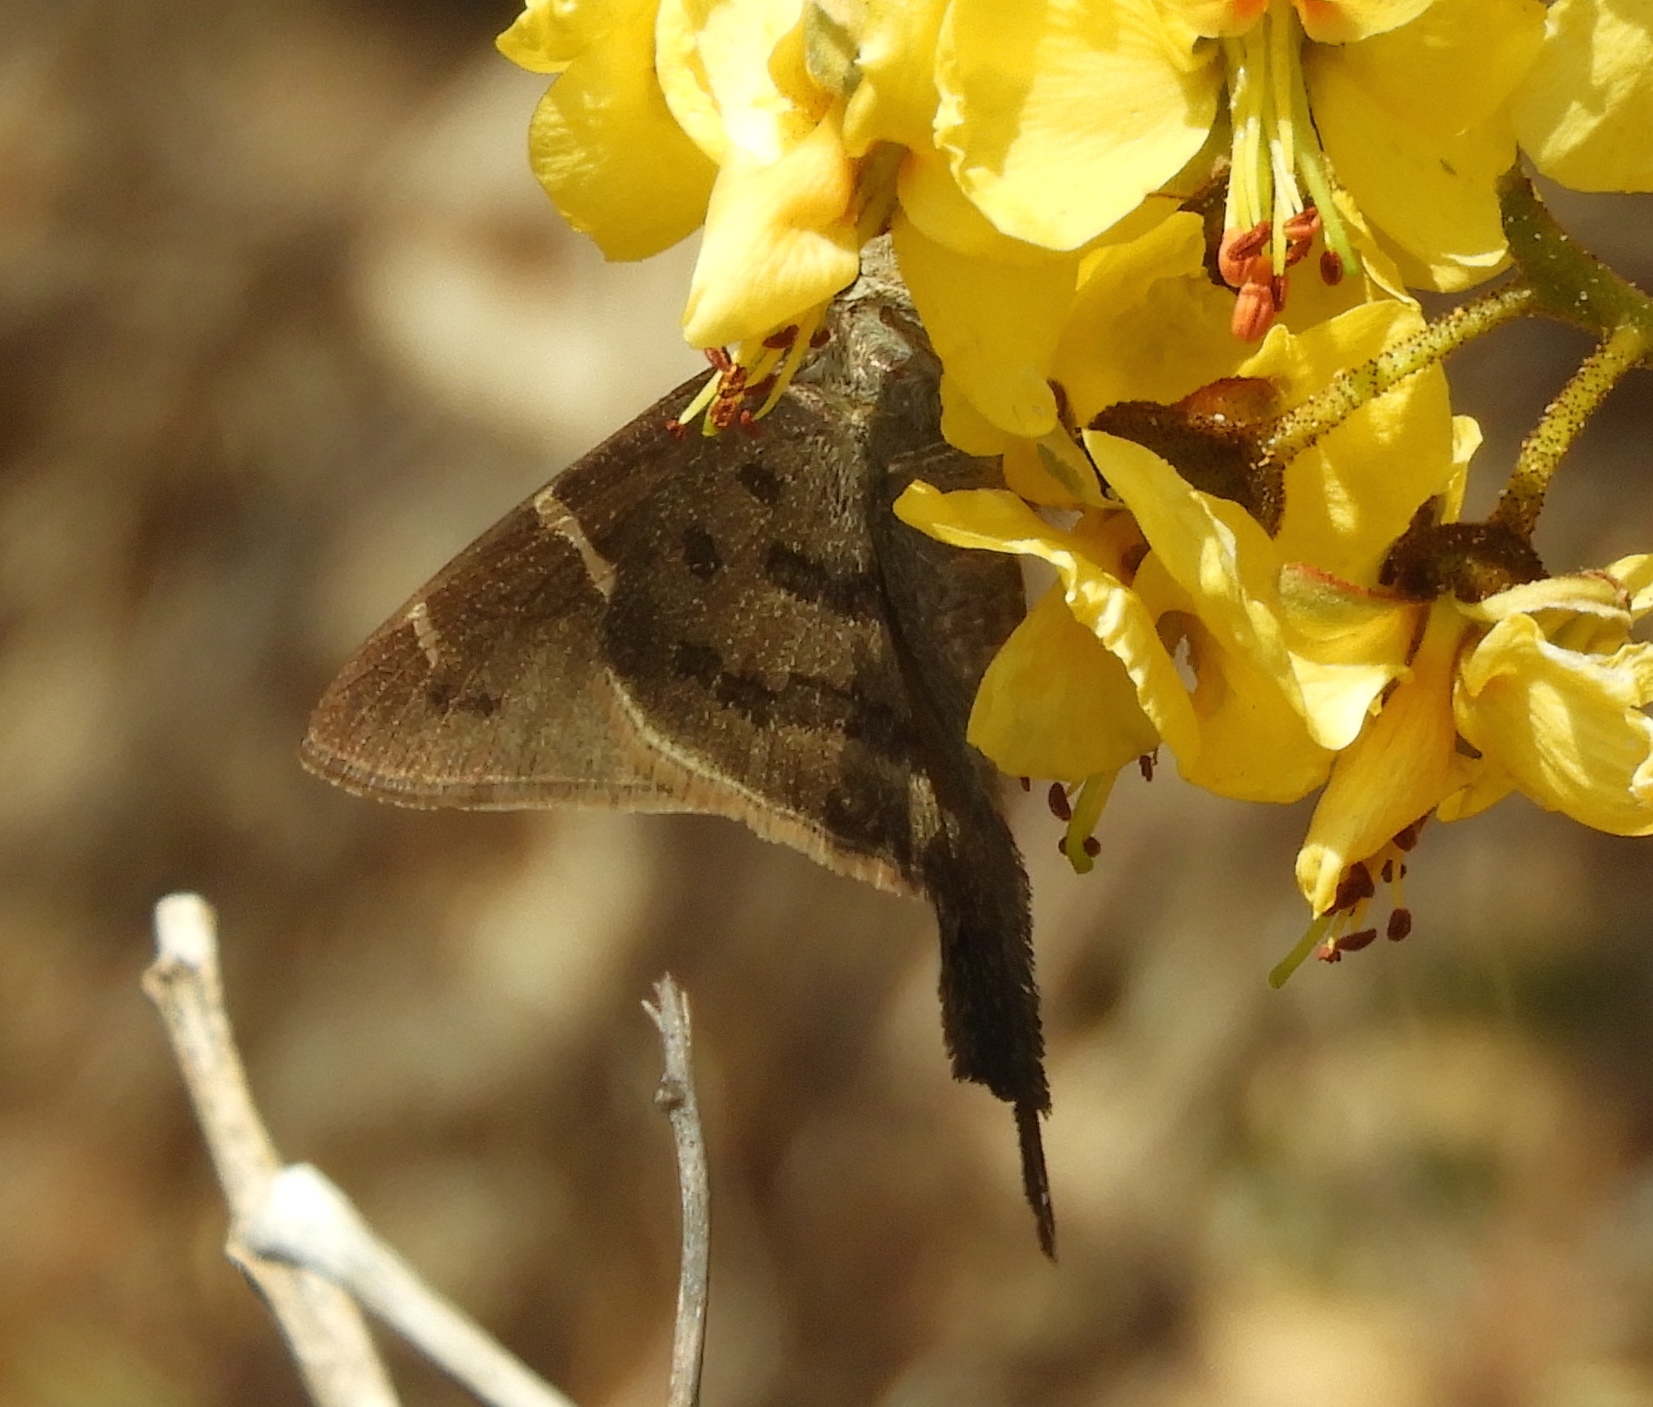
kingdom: Animalia
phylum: Arthropoda
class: Insecta
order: Lepidoptera
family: Hesperiidae
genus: Urbanus
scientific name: Urbanus procne
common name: Brown longtail
